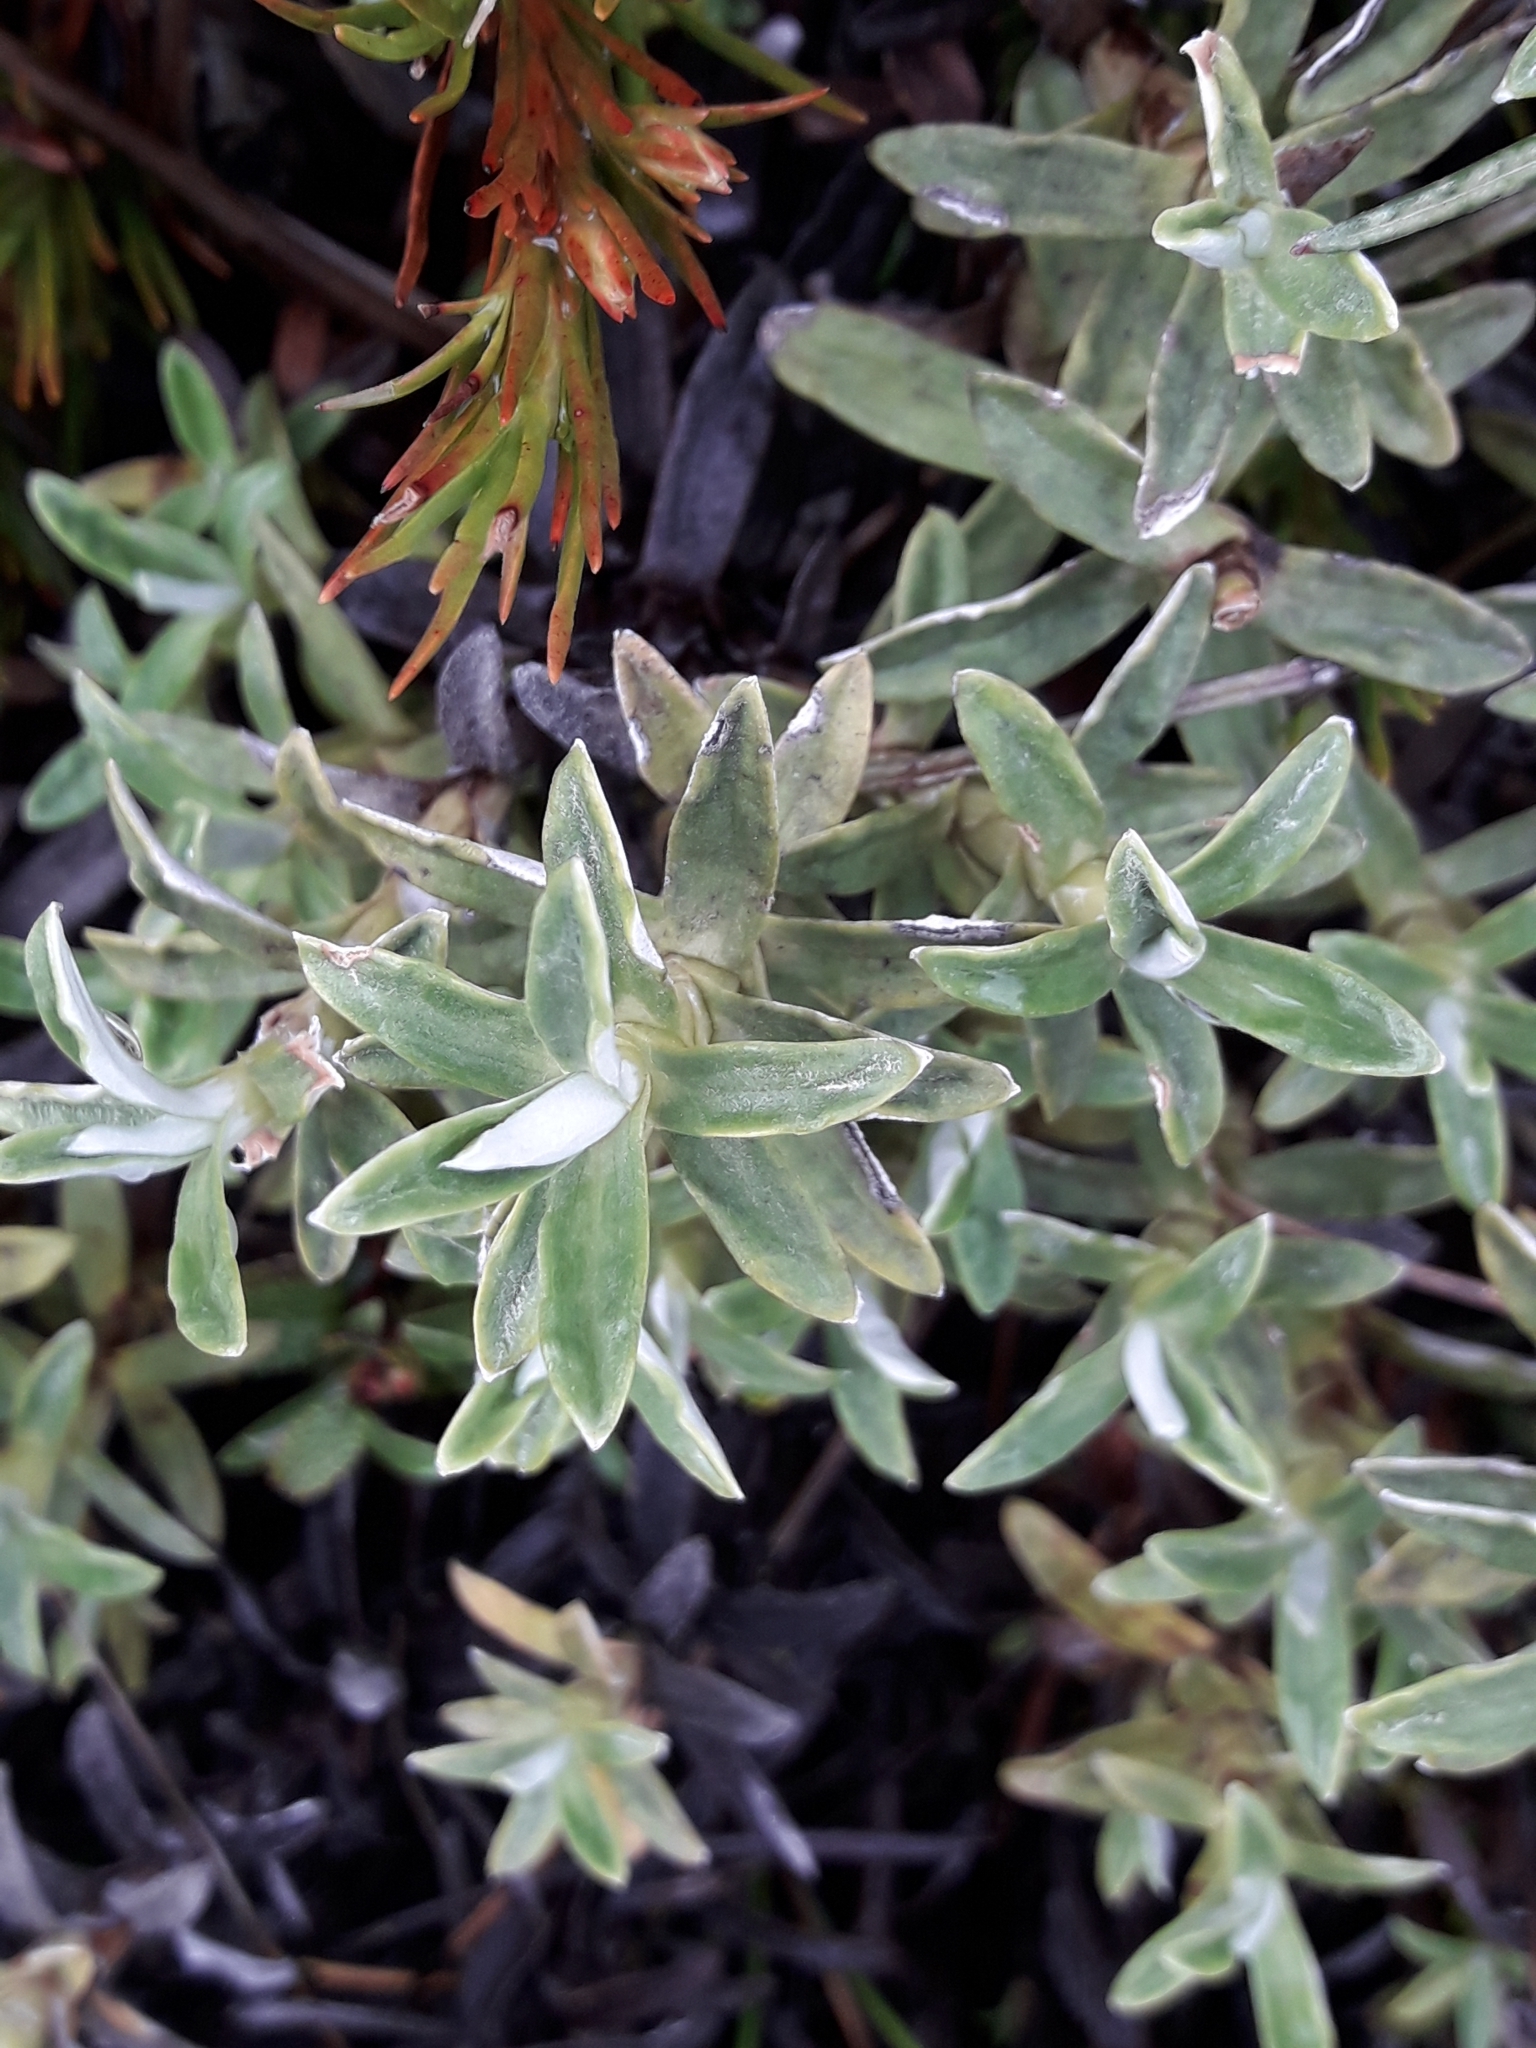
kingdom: Plantae
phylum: Tracheophyta
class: Magnoliopsida
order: Asterales
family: Asteraceae
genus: Celmisia
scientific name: Celmisia angustifolia
